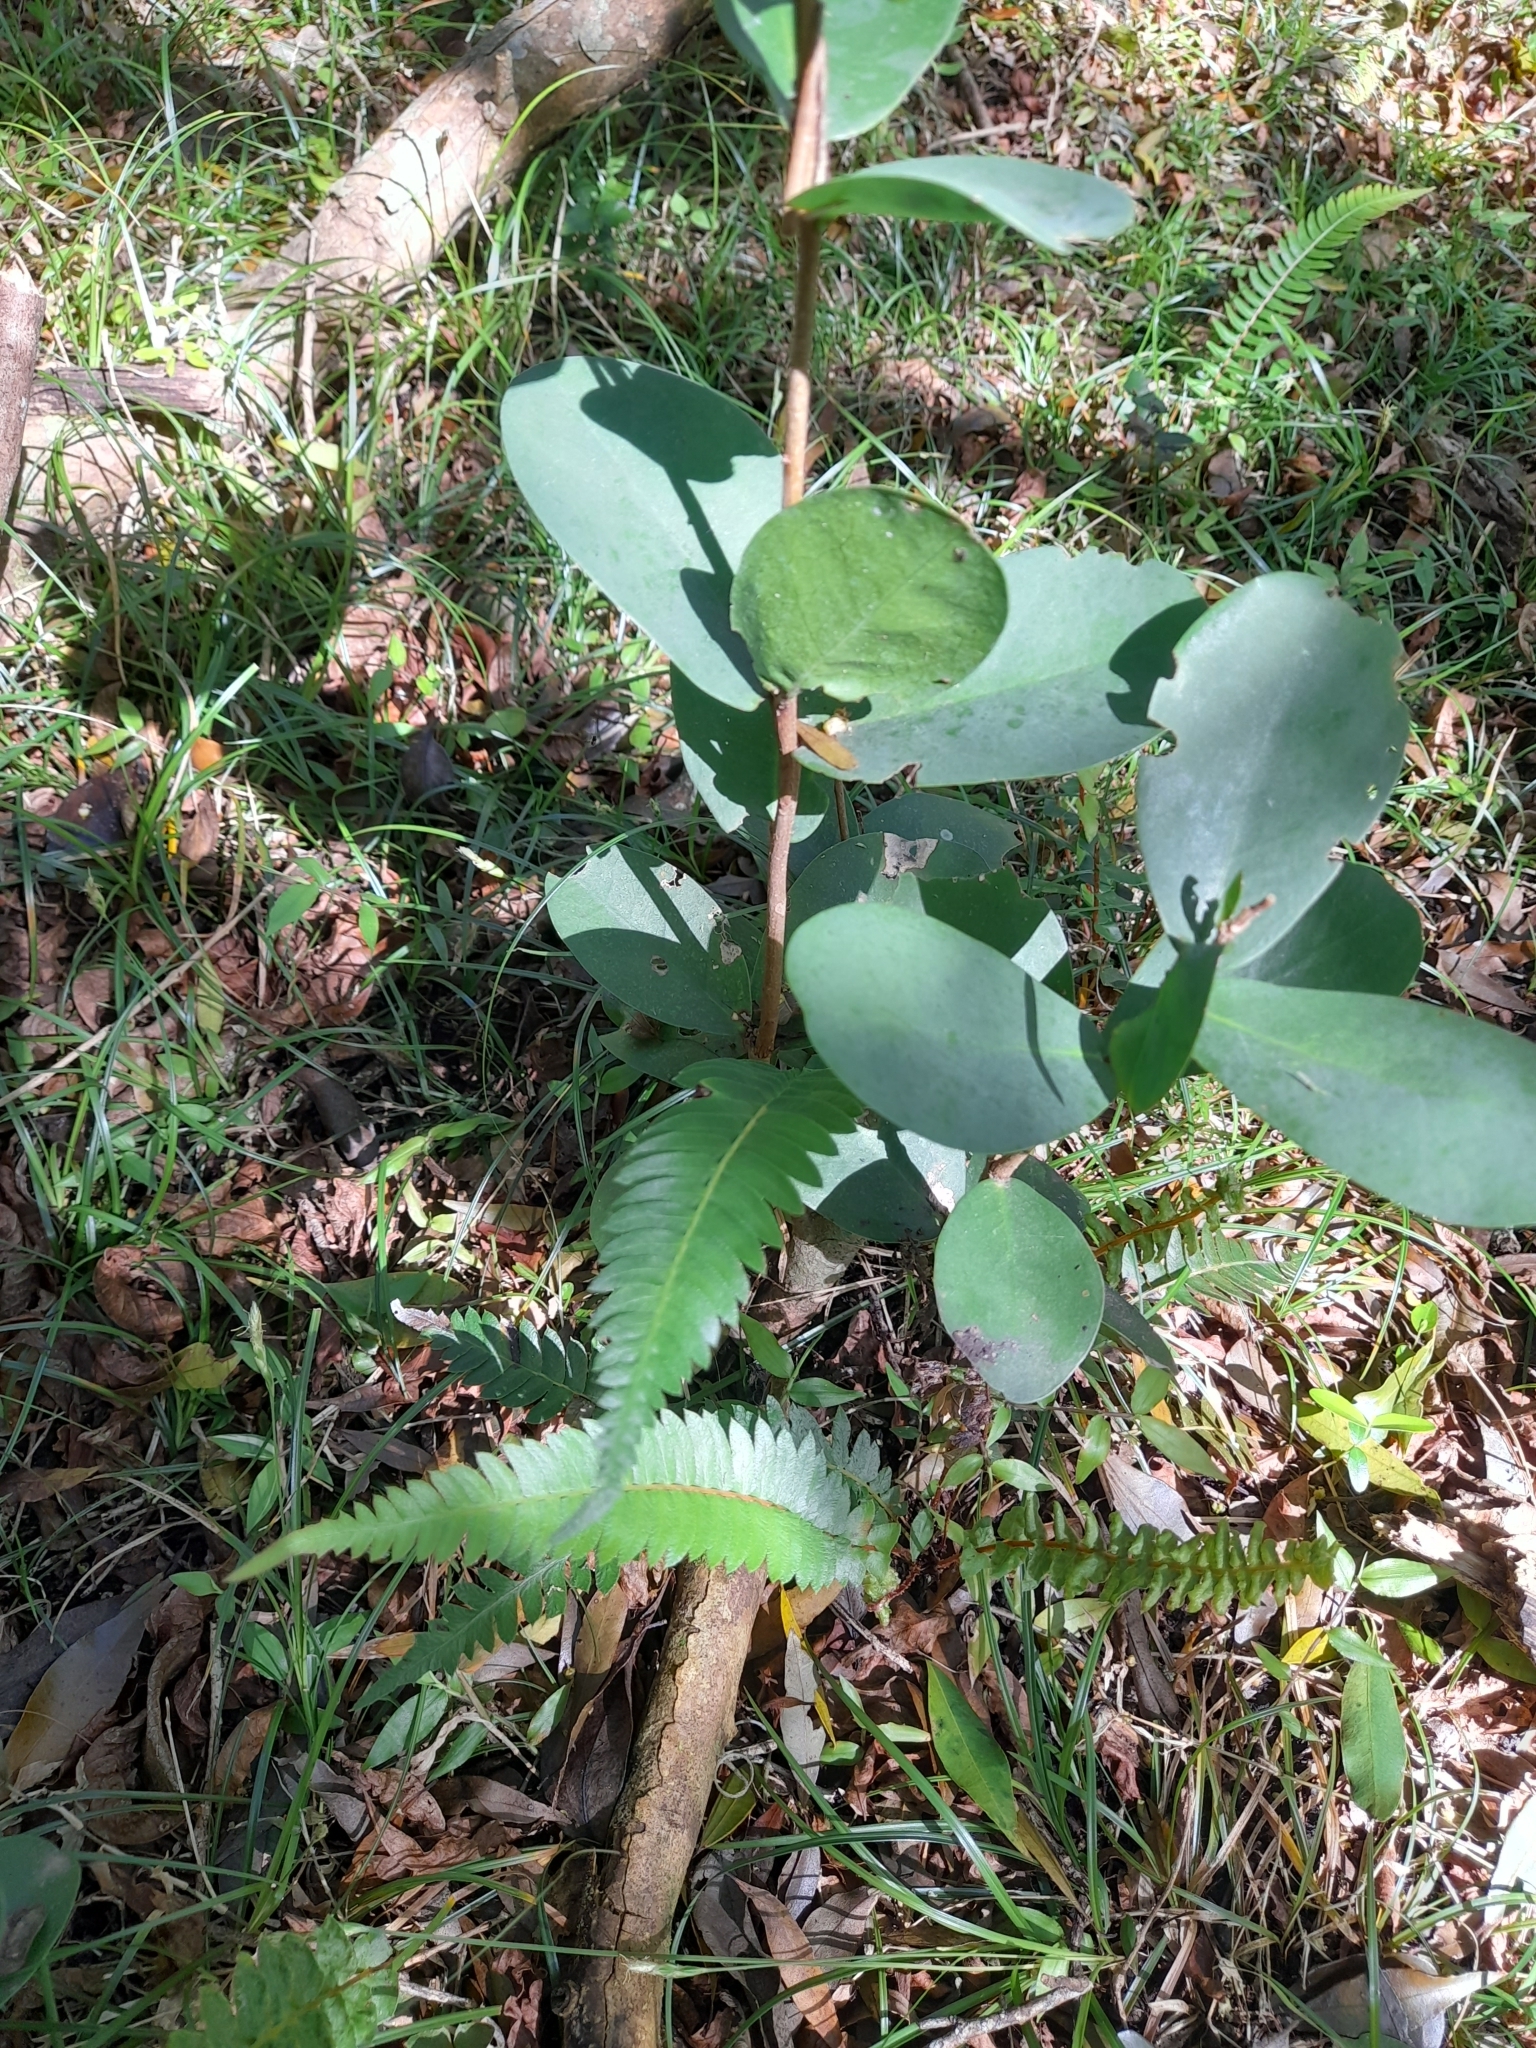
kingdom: Plantae
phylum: Tracheophyta
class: Magnoliopsida
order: Malvales
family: Thymelaeaceae
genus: Daphnopsis
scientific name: Daphnopsis racemosa
